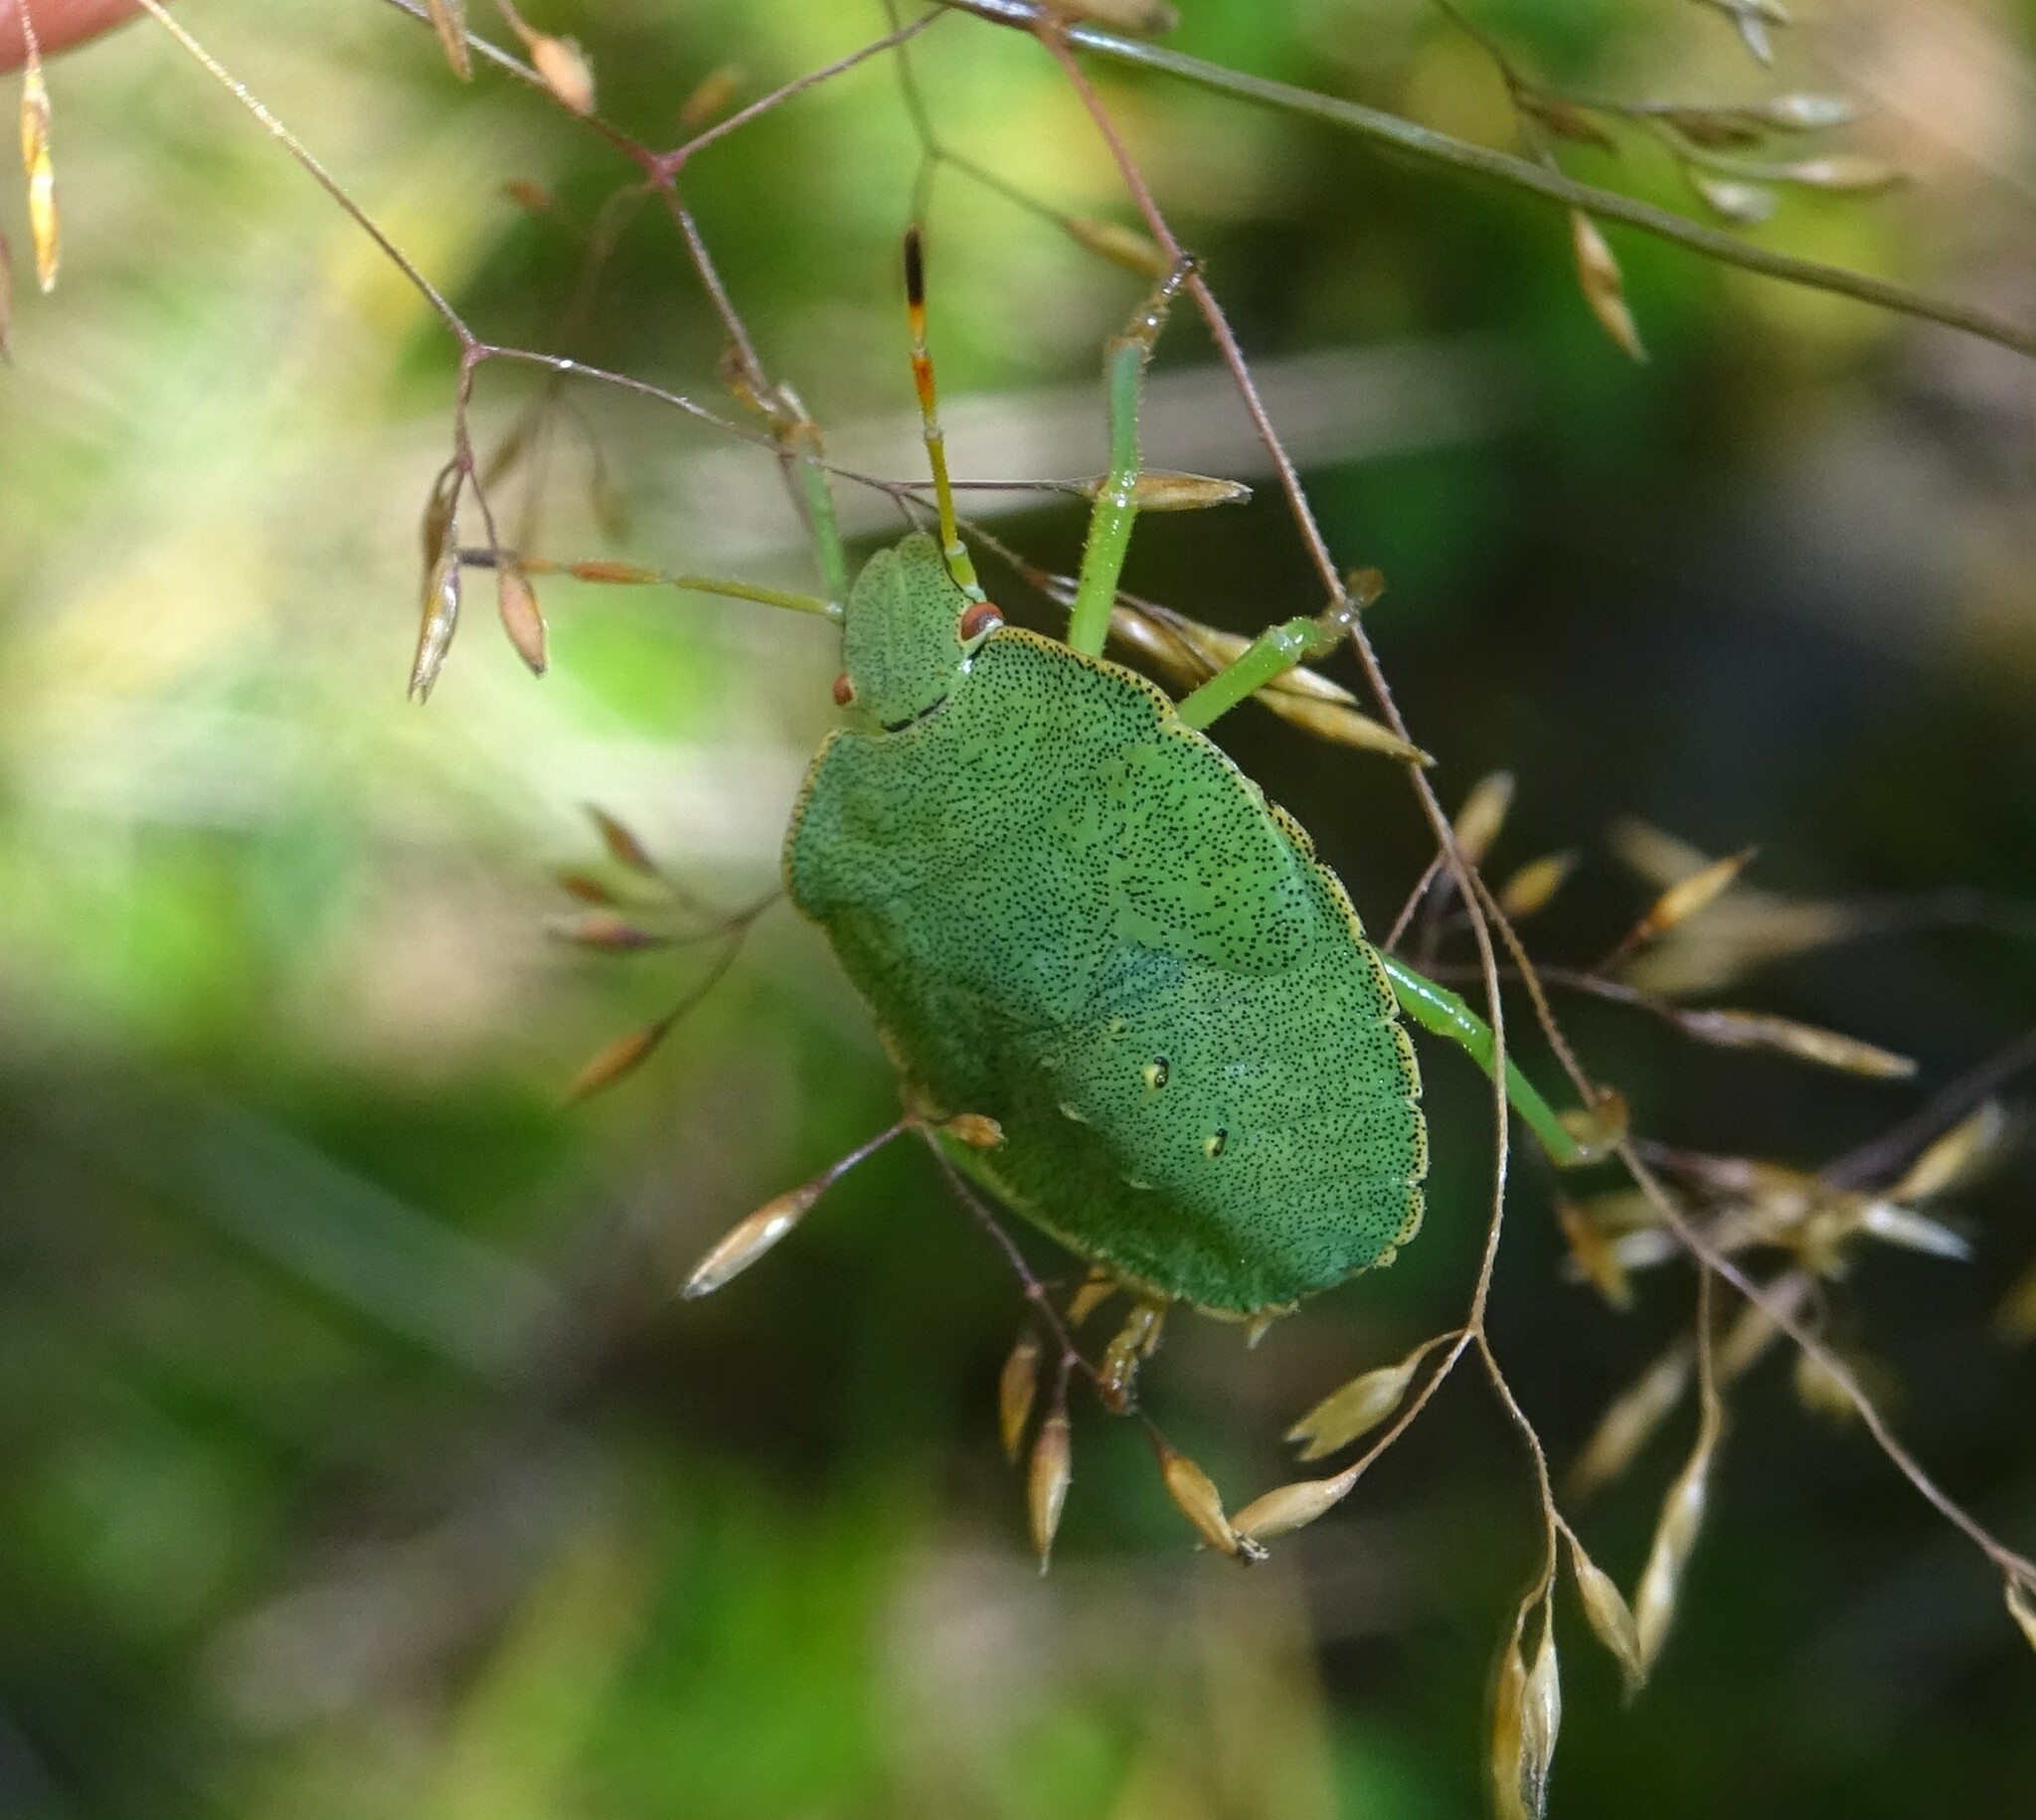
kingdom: Animalia
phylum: Arthropoda
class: Insecta
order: Hemiptera
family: Pentatomidae
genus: Palomena
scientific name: Palomena prasina
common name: Green shieldbug
